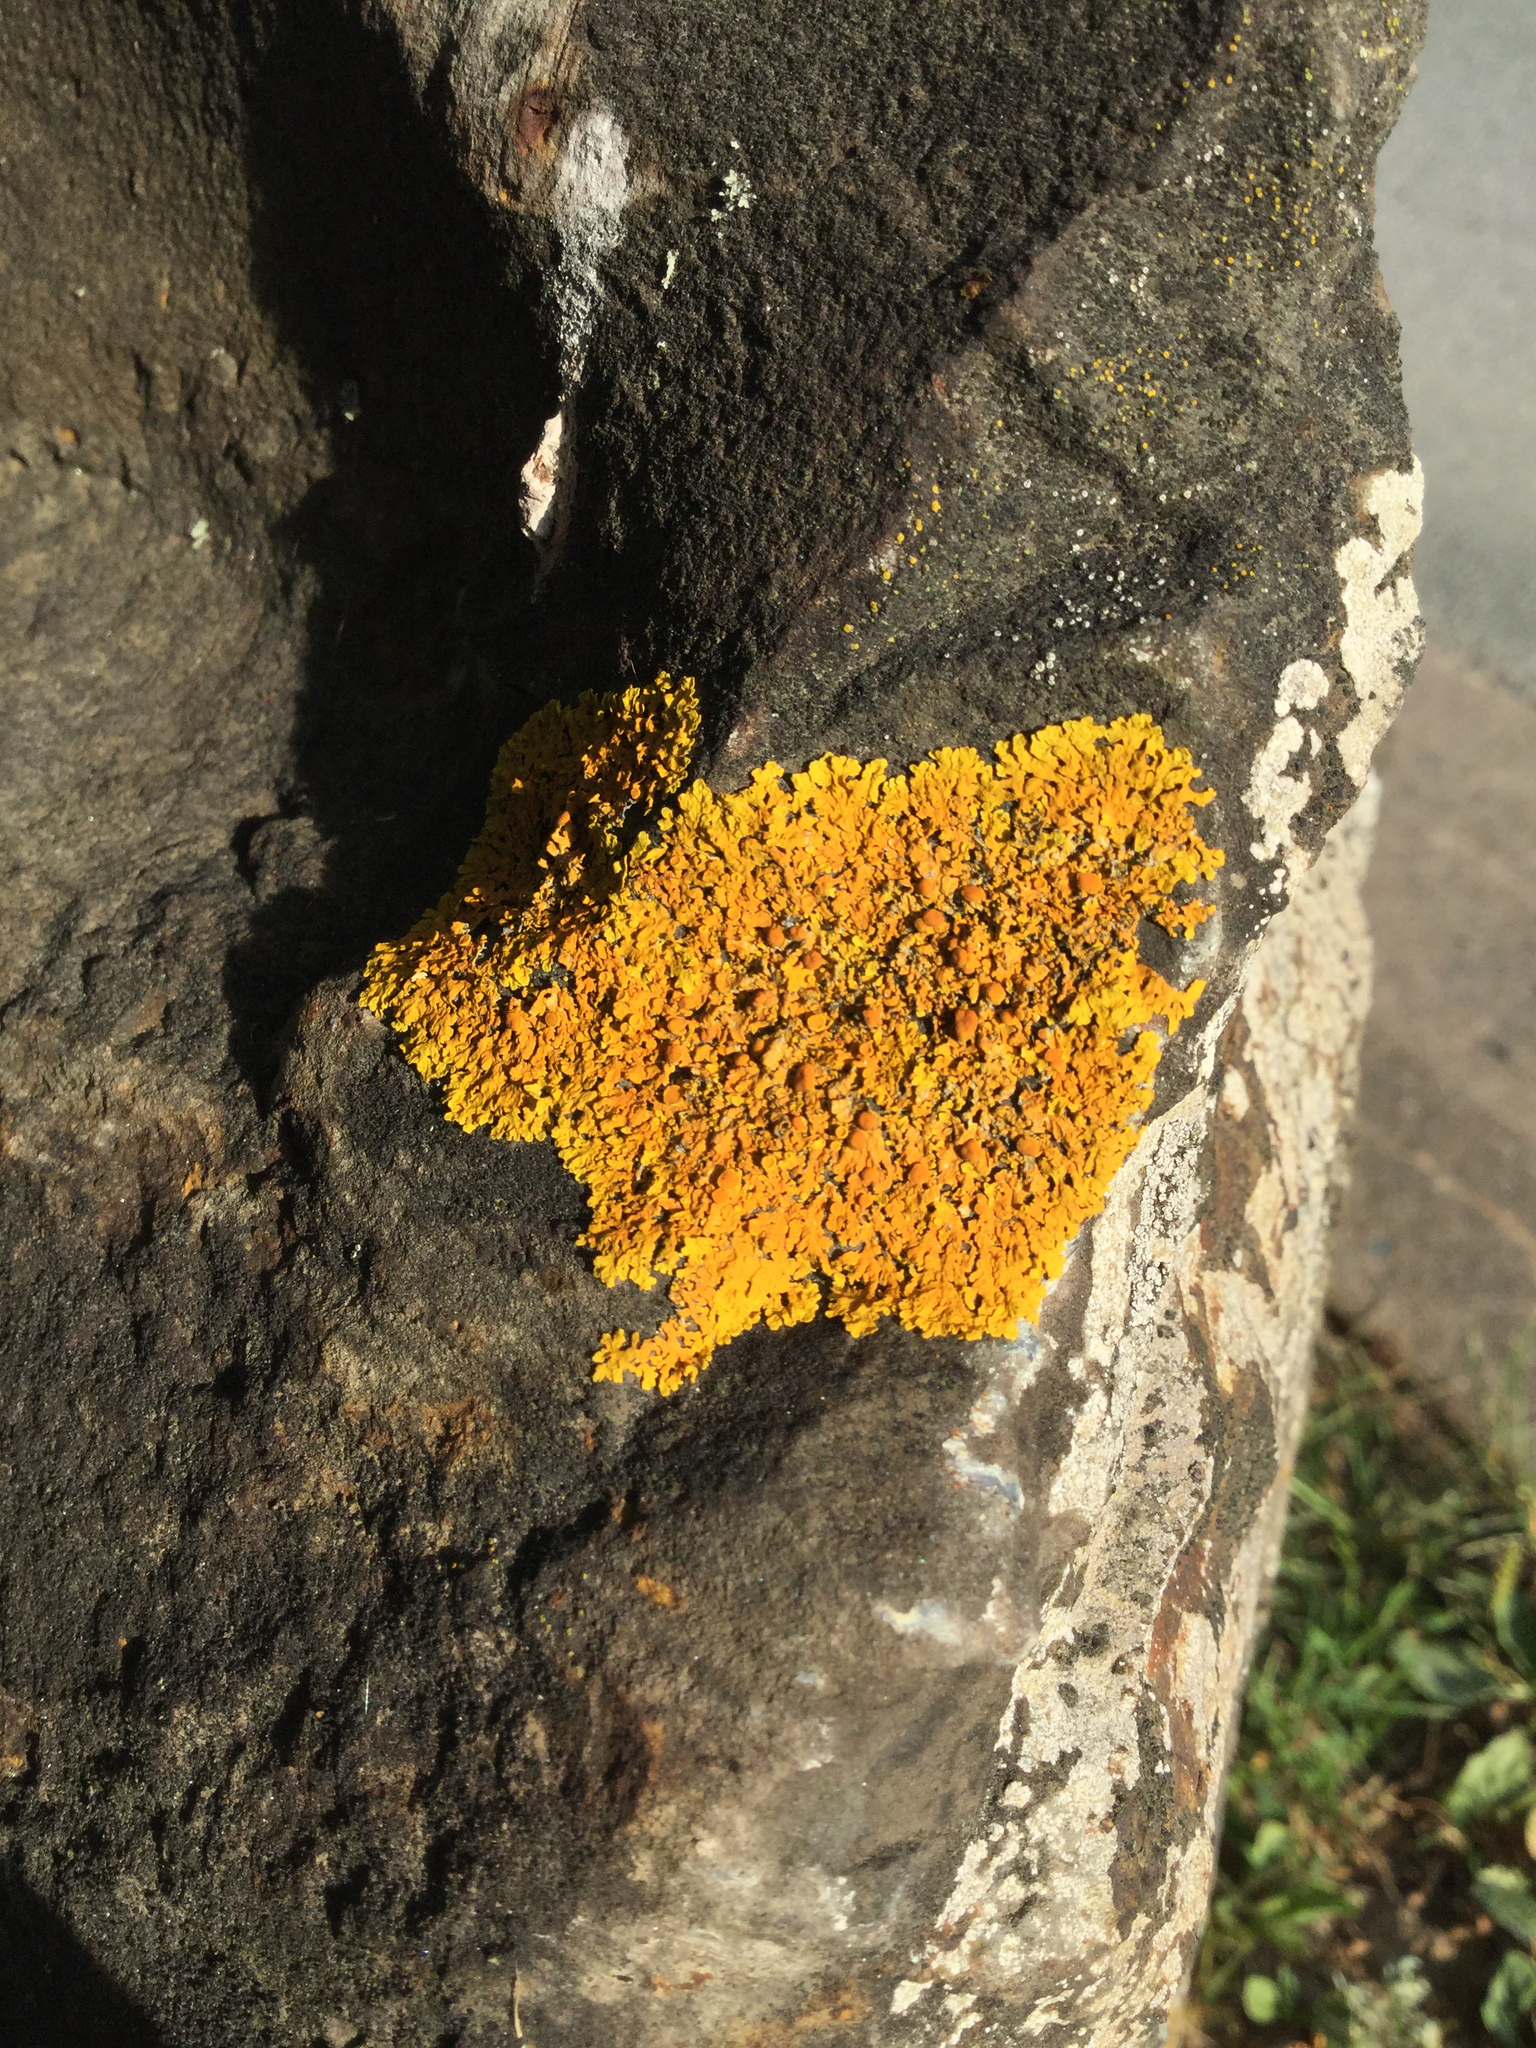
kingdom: Fungi
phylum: Ascomycota
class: Lecanoromycetes
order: Teloschistales
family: Teloschistaceae
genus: Xanthoria
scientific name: Xanthoria parietina
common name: Common orange lichen
